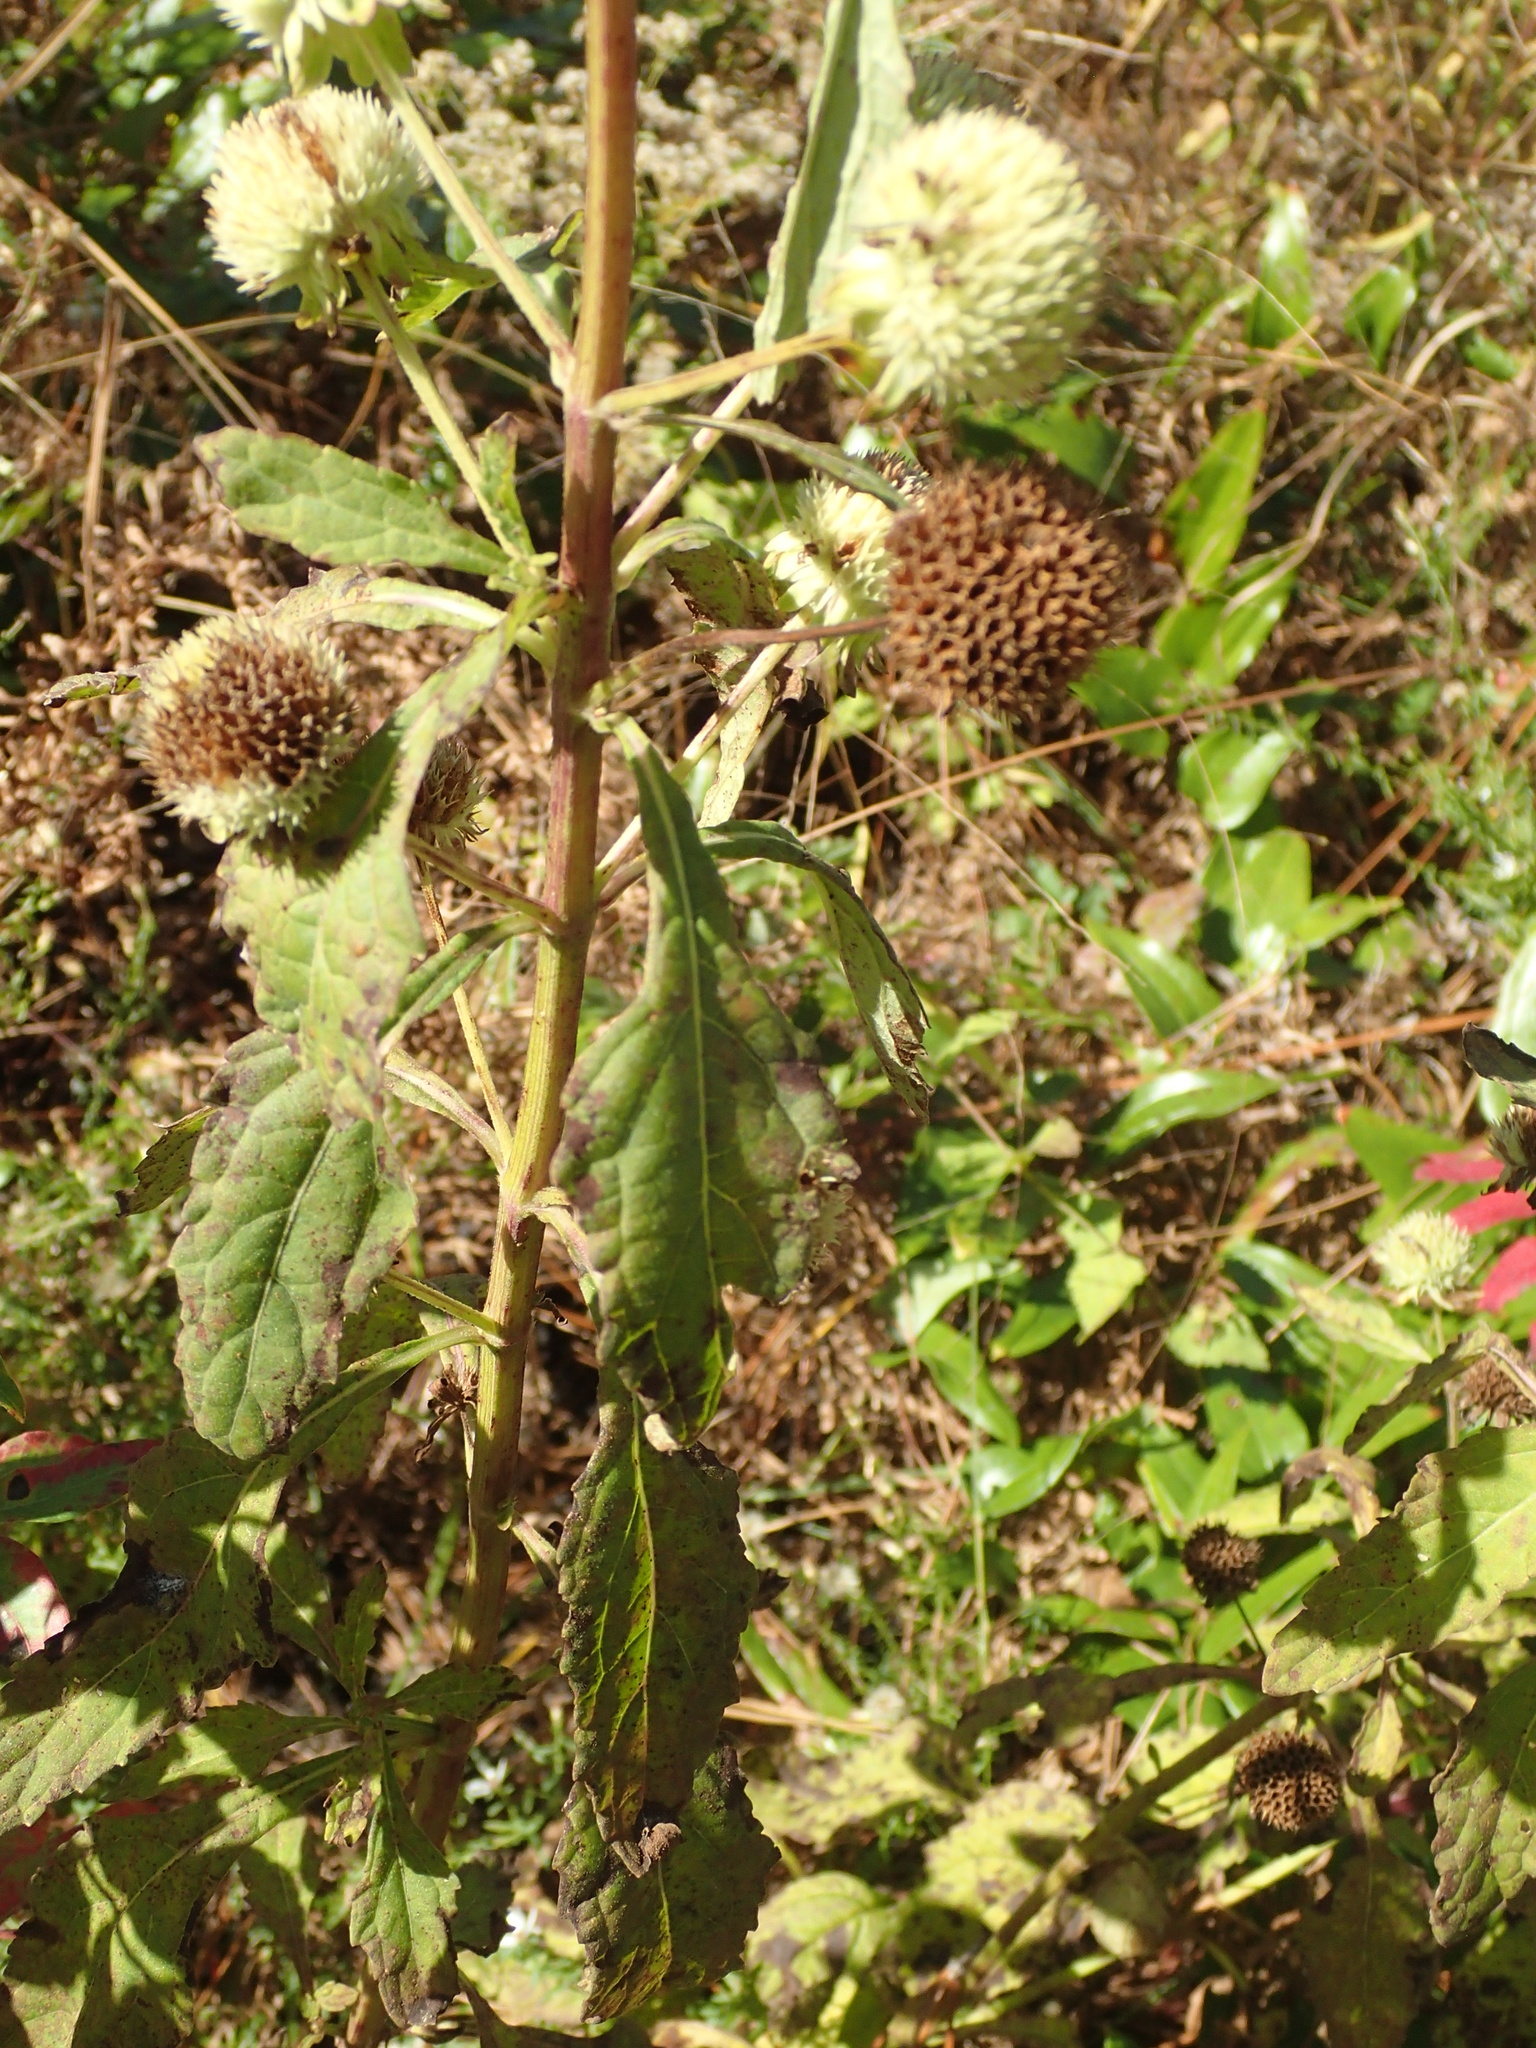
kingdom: Plantae
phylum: Tracheophyta
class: Magnoliopsida
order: Lamiales
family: Lamiaceae
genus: Hyptis
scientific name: Hyptis alata
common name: Cluster bush-mint
